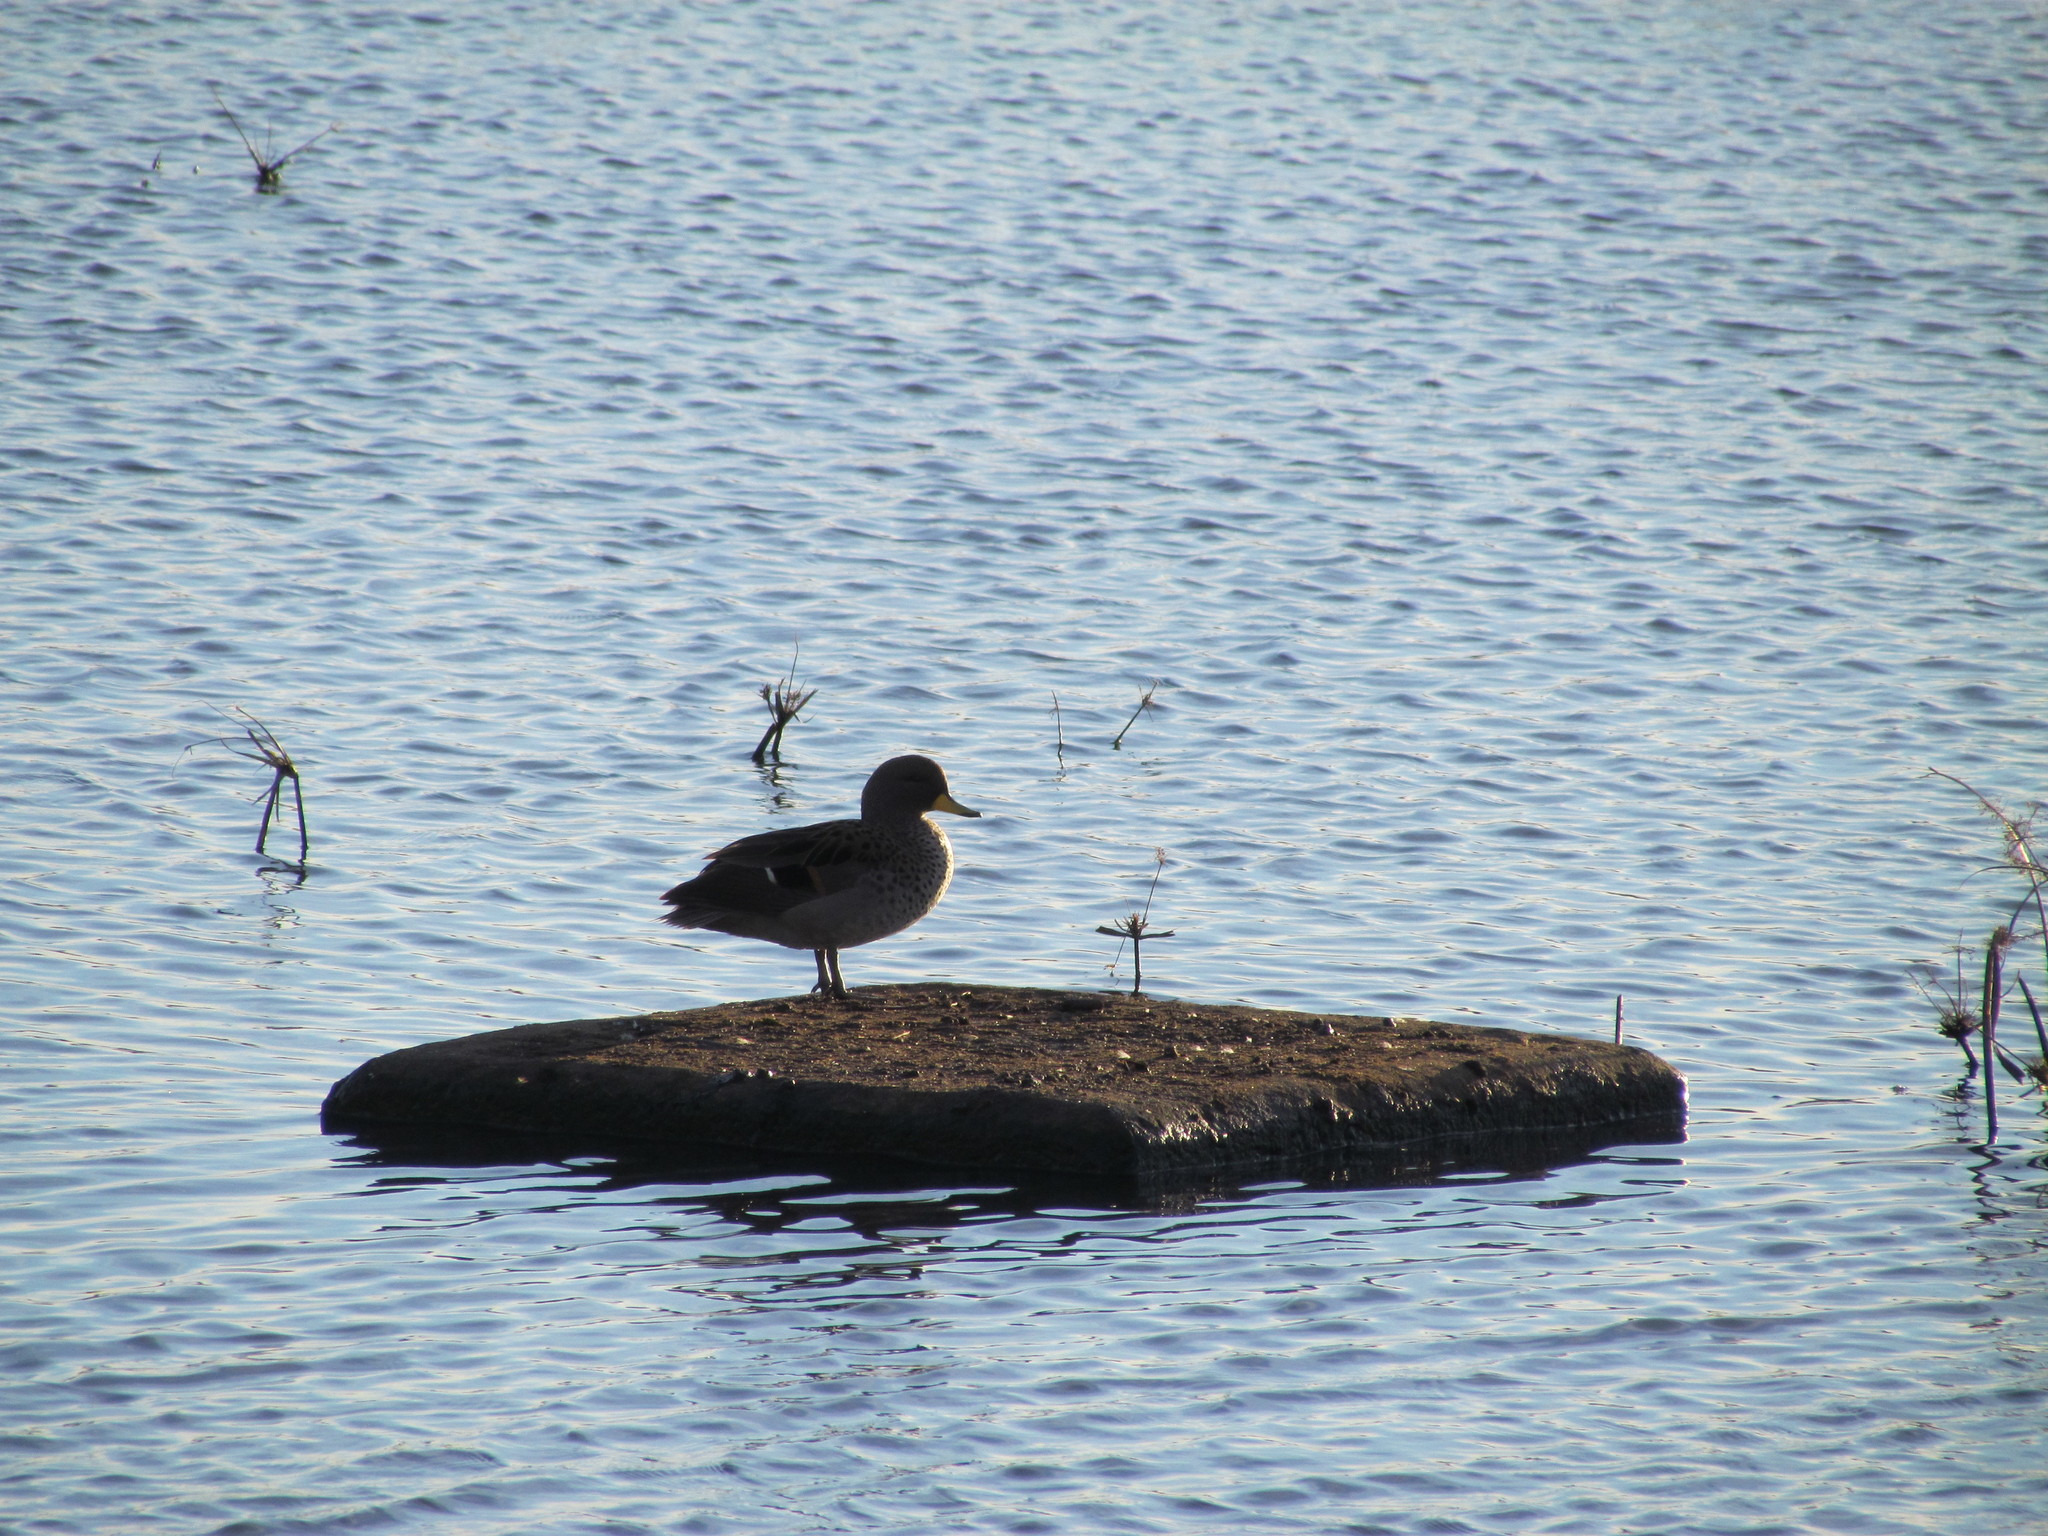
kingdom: Animalia
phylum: Chordata
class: Aves
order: Anseriformes
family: Anatidae
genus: Anas
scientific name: Anas flavirostris
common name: Yellow-billed teal
